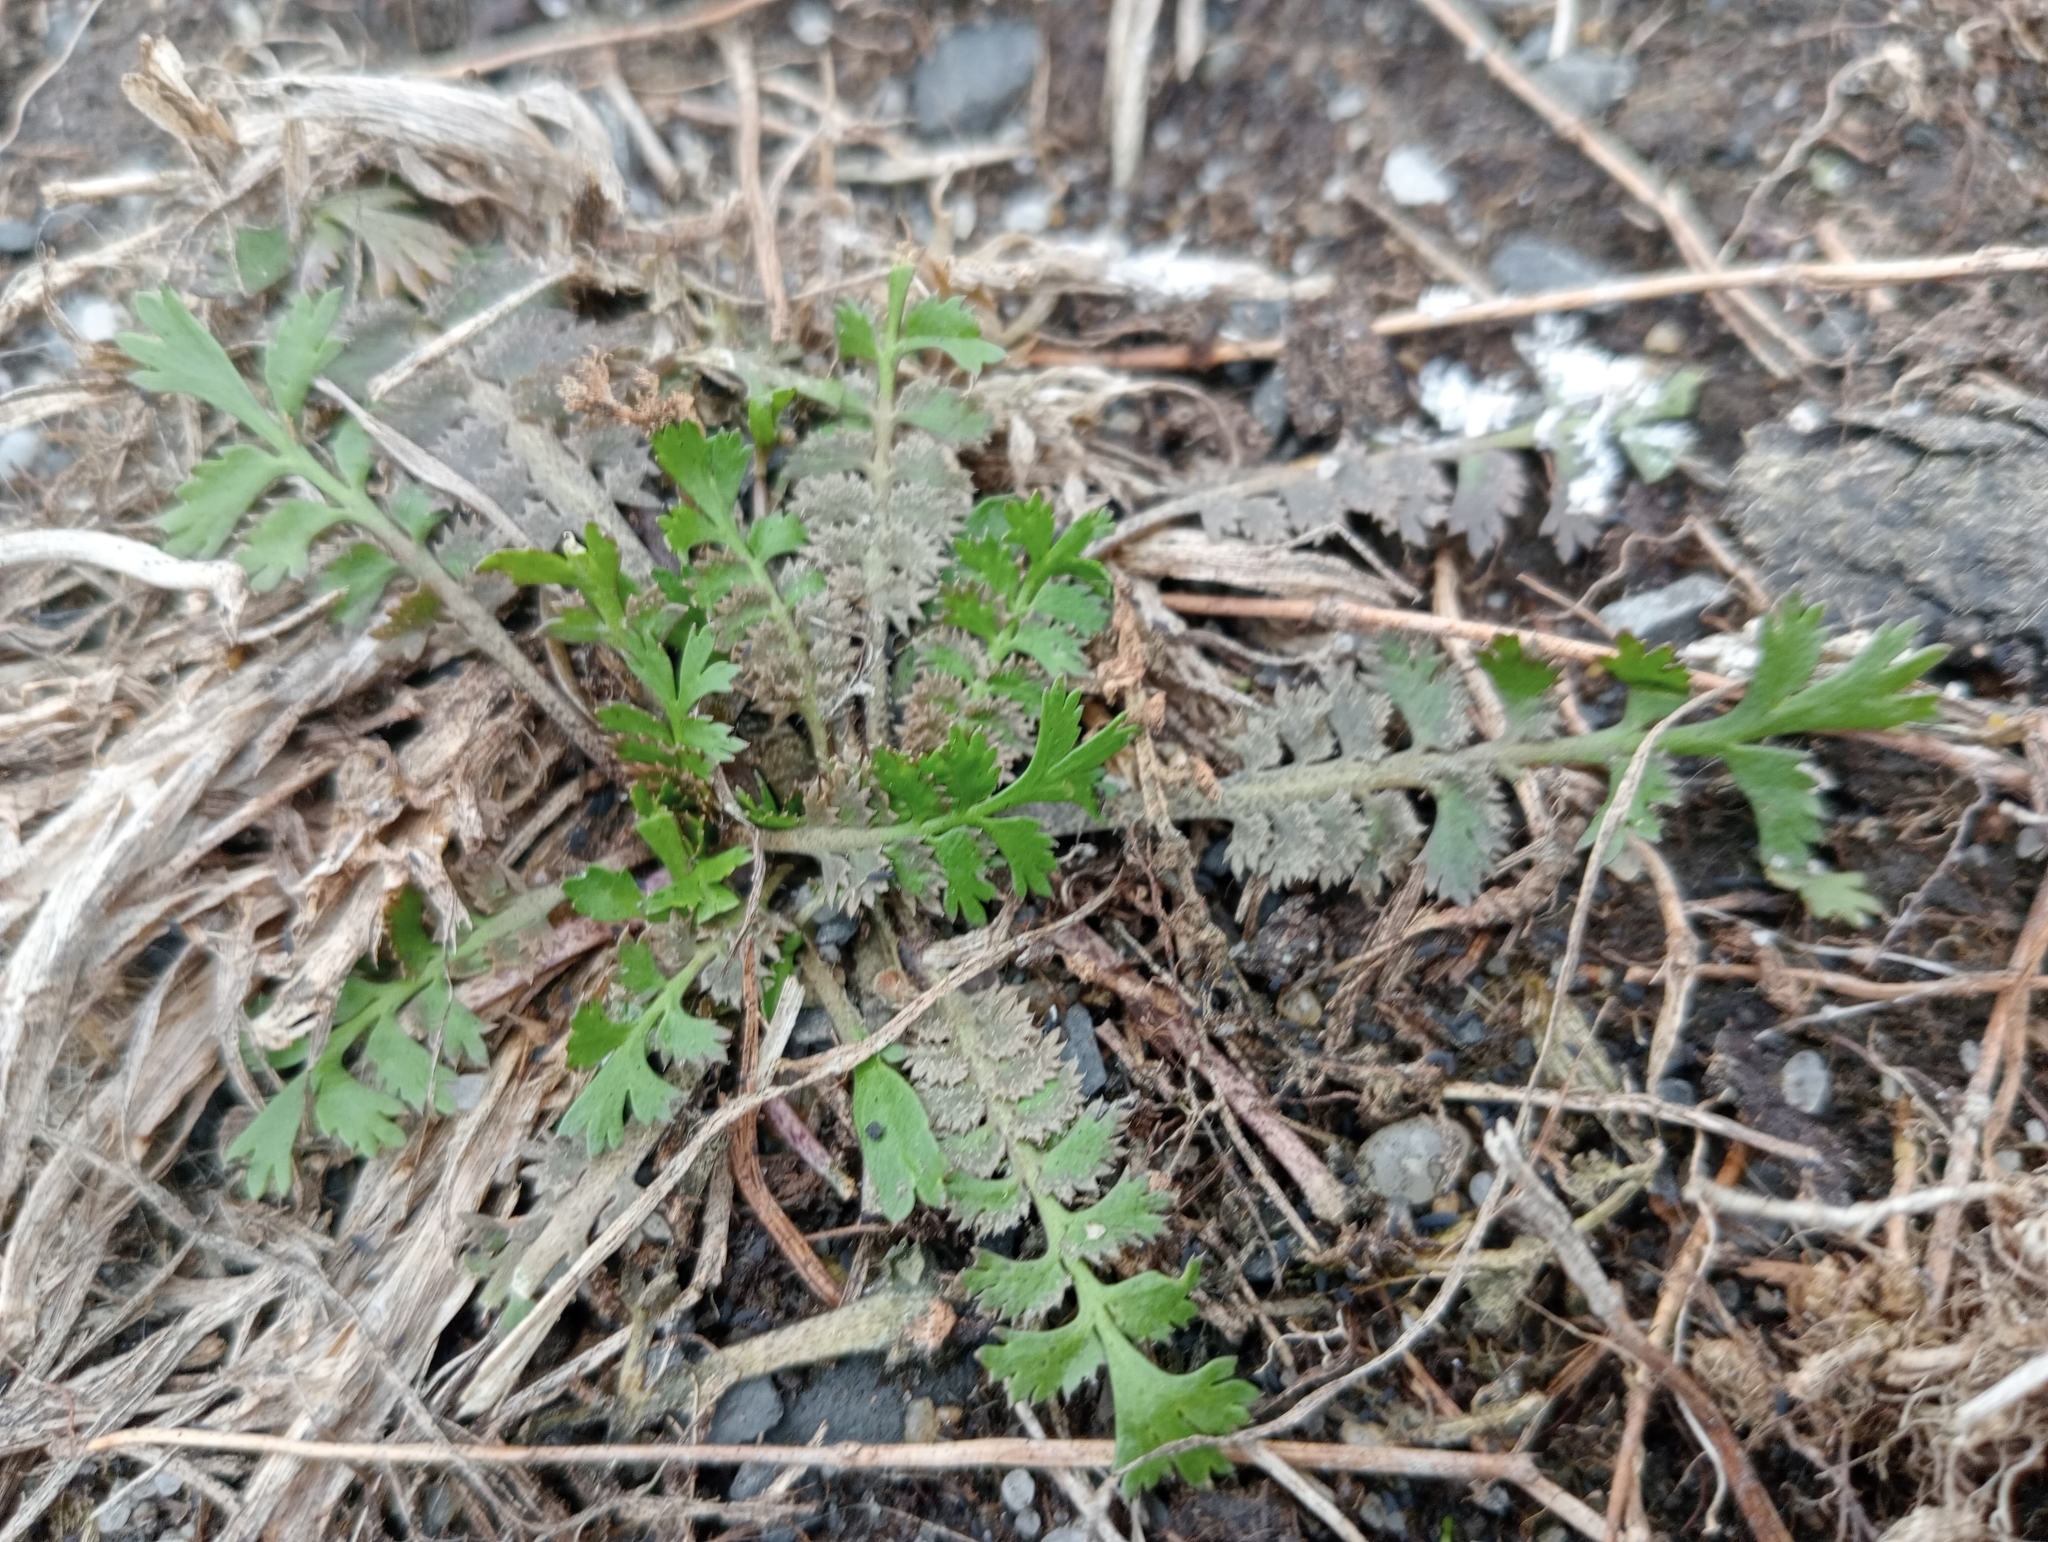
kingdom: Plantae
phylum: Tracheophyta
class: Magnoliopsida
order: Brassicales
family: Brassicaceae
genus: Lepidium
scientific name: Lepidium tenuicaule
